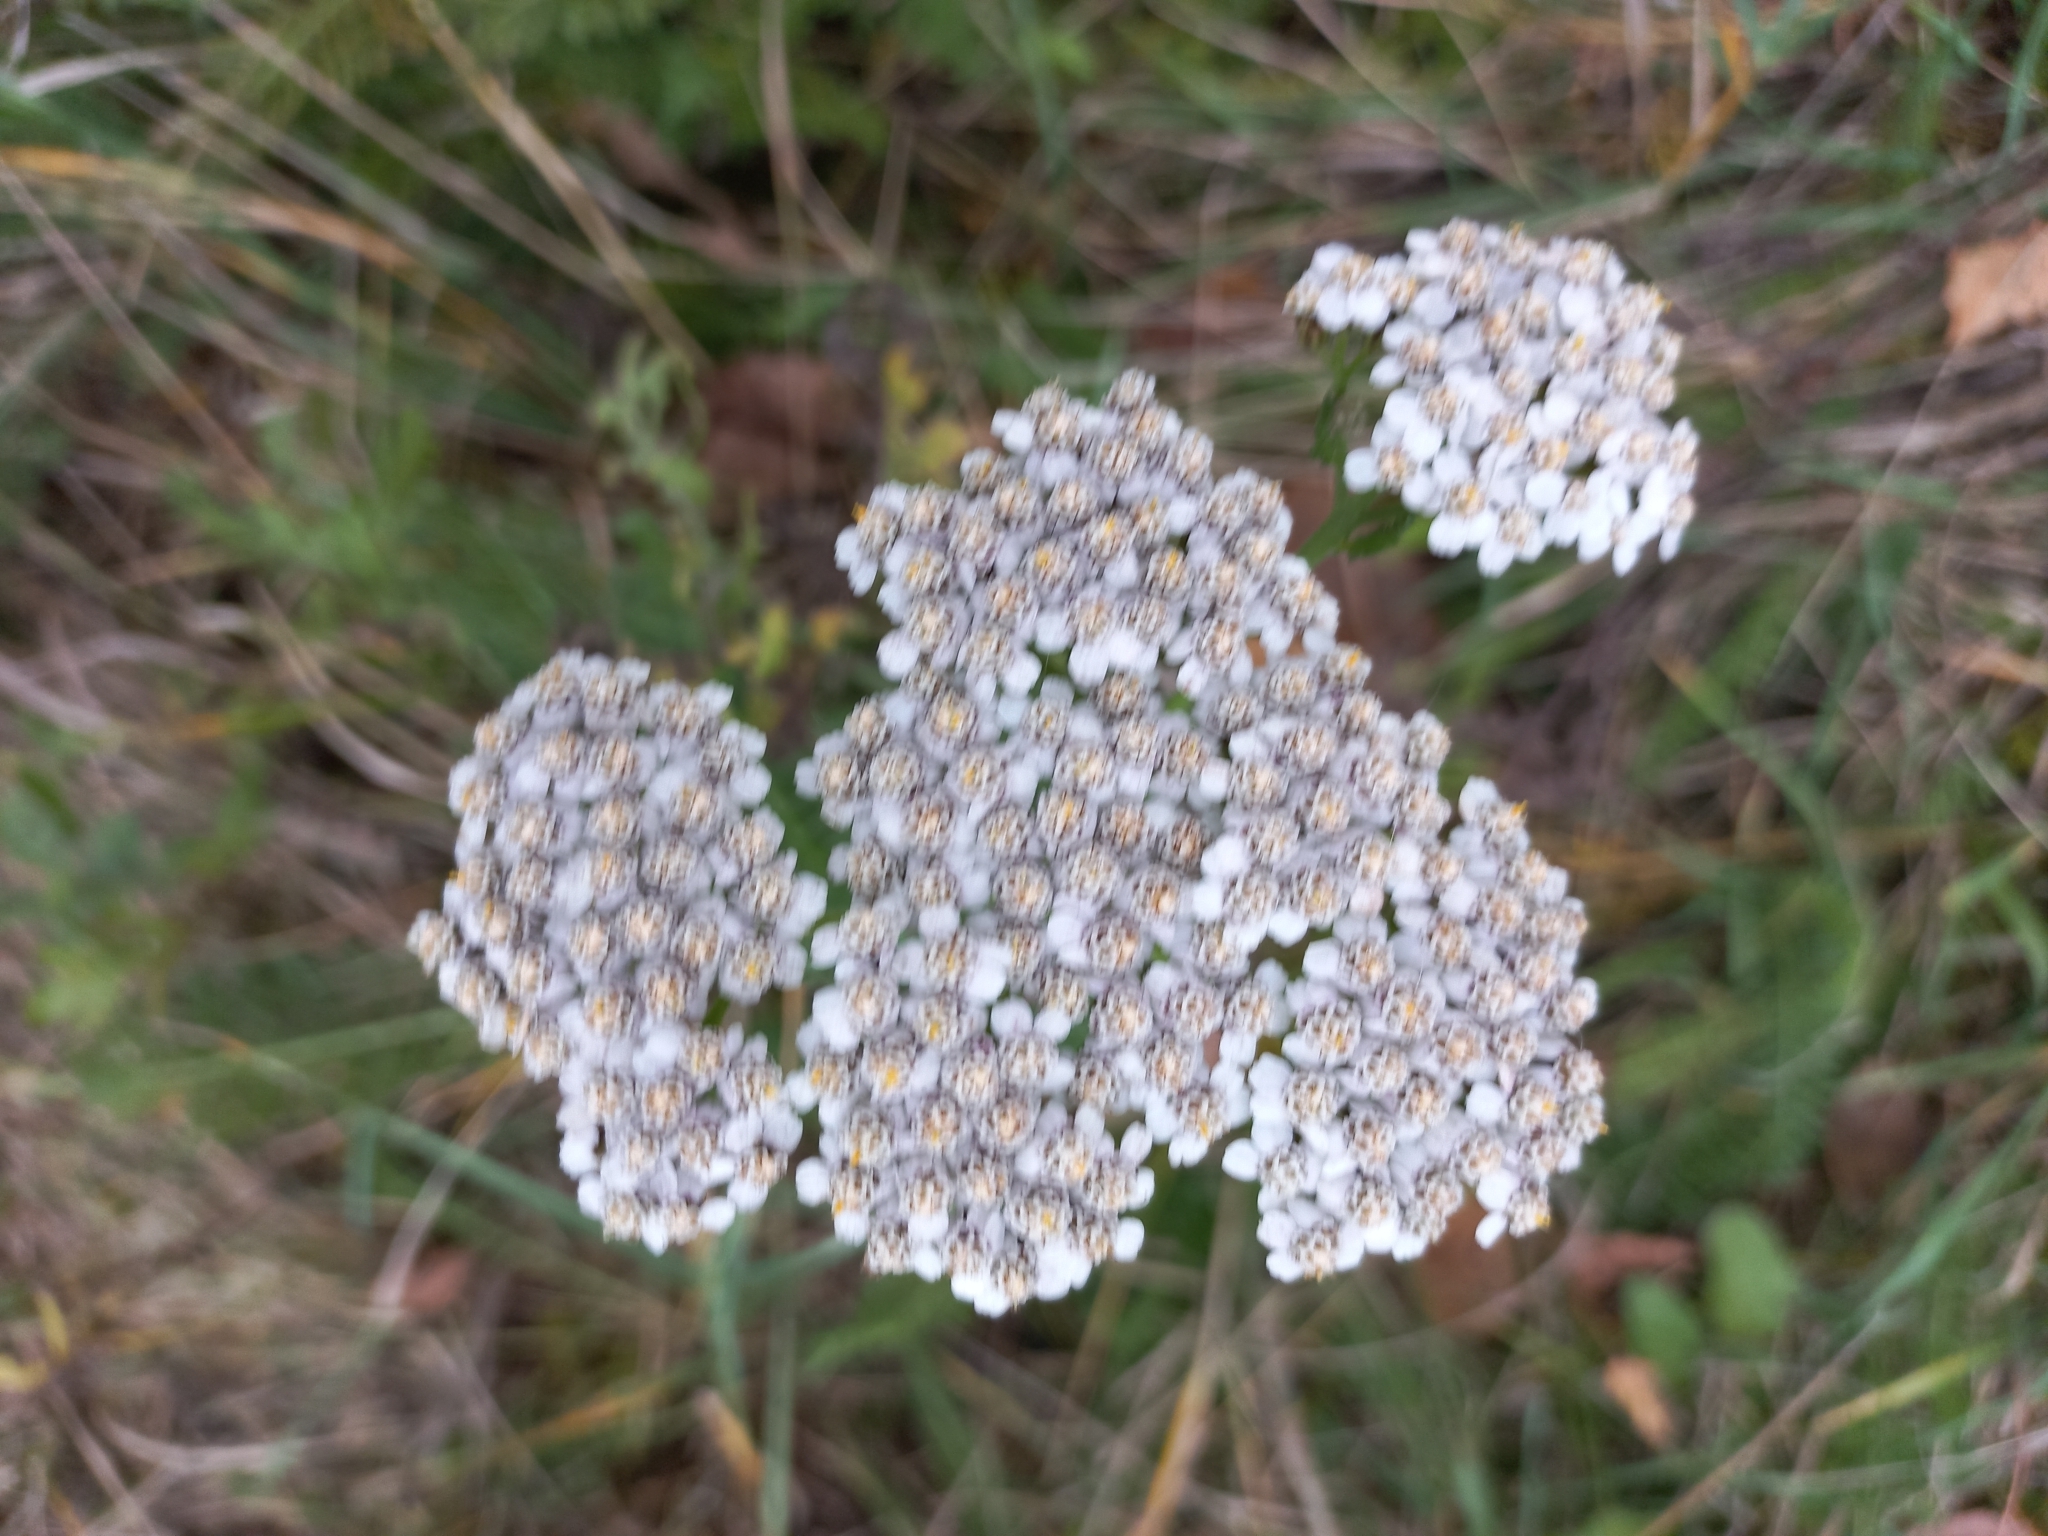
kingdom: Plantae
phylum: Tracheophyta
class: Magnoliopsida
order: Asterales
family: Asteraceae
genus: Achillea
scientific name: Achillea millefolium
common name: Yarrow
